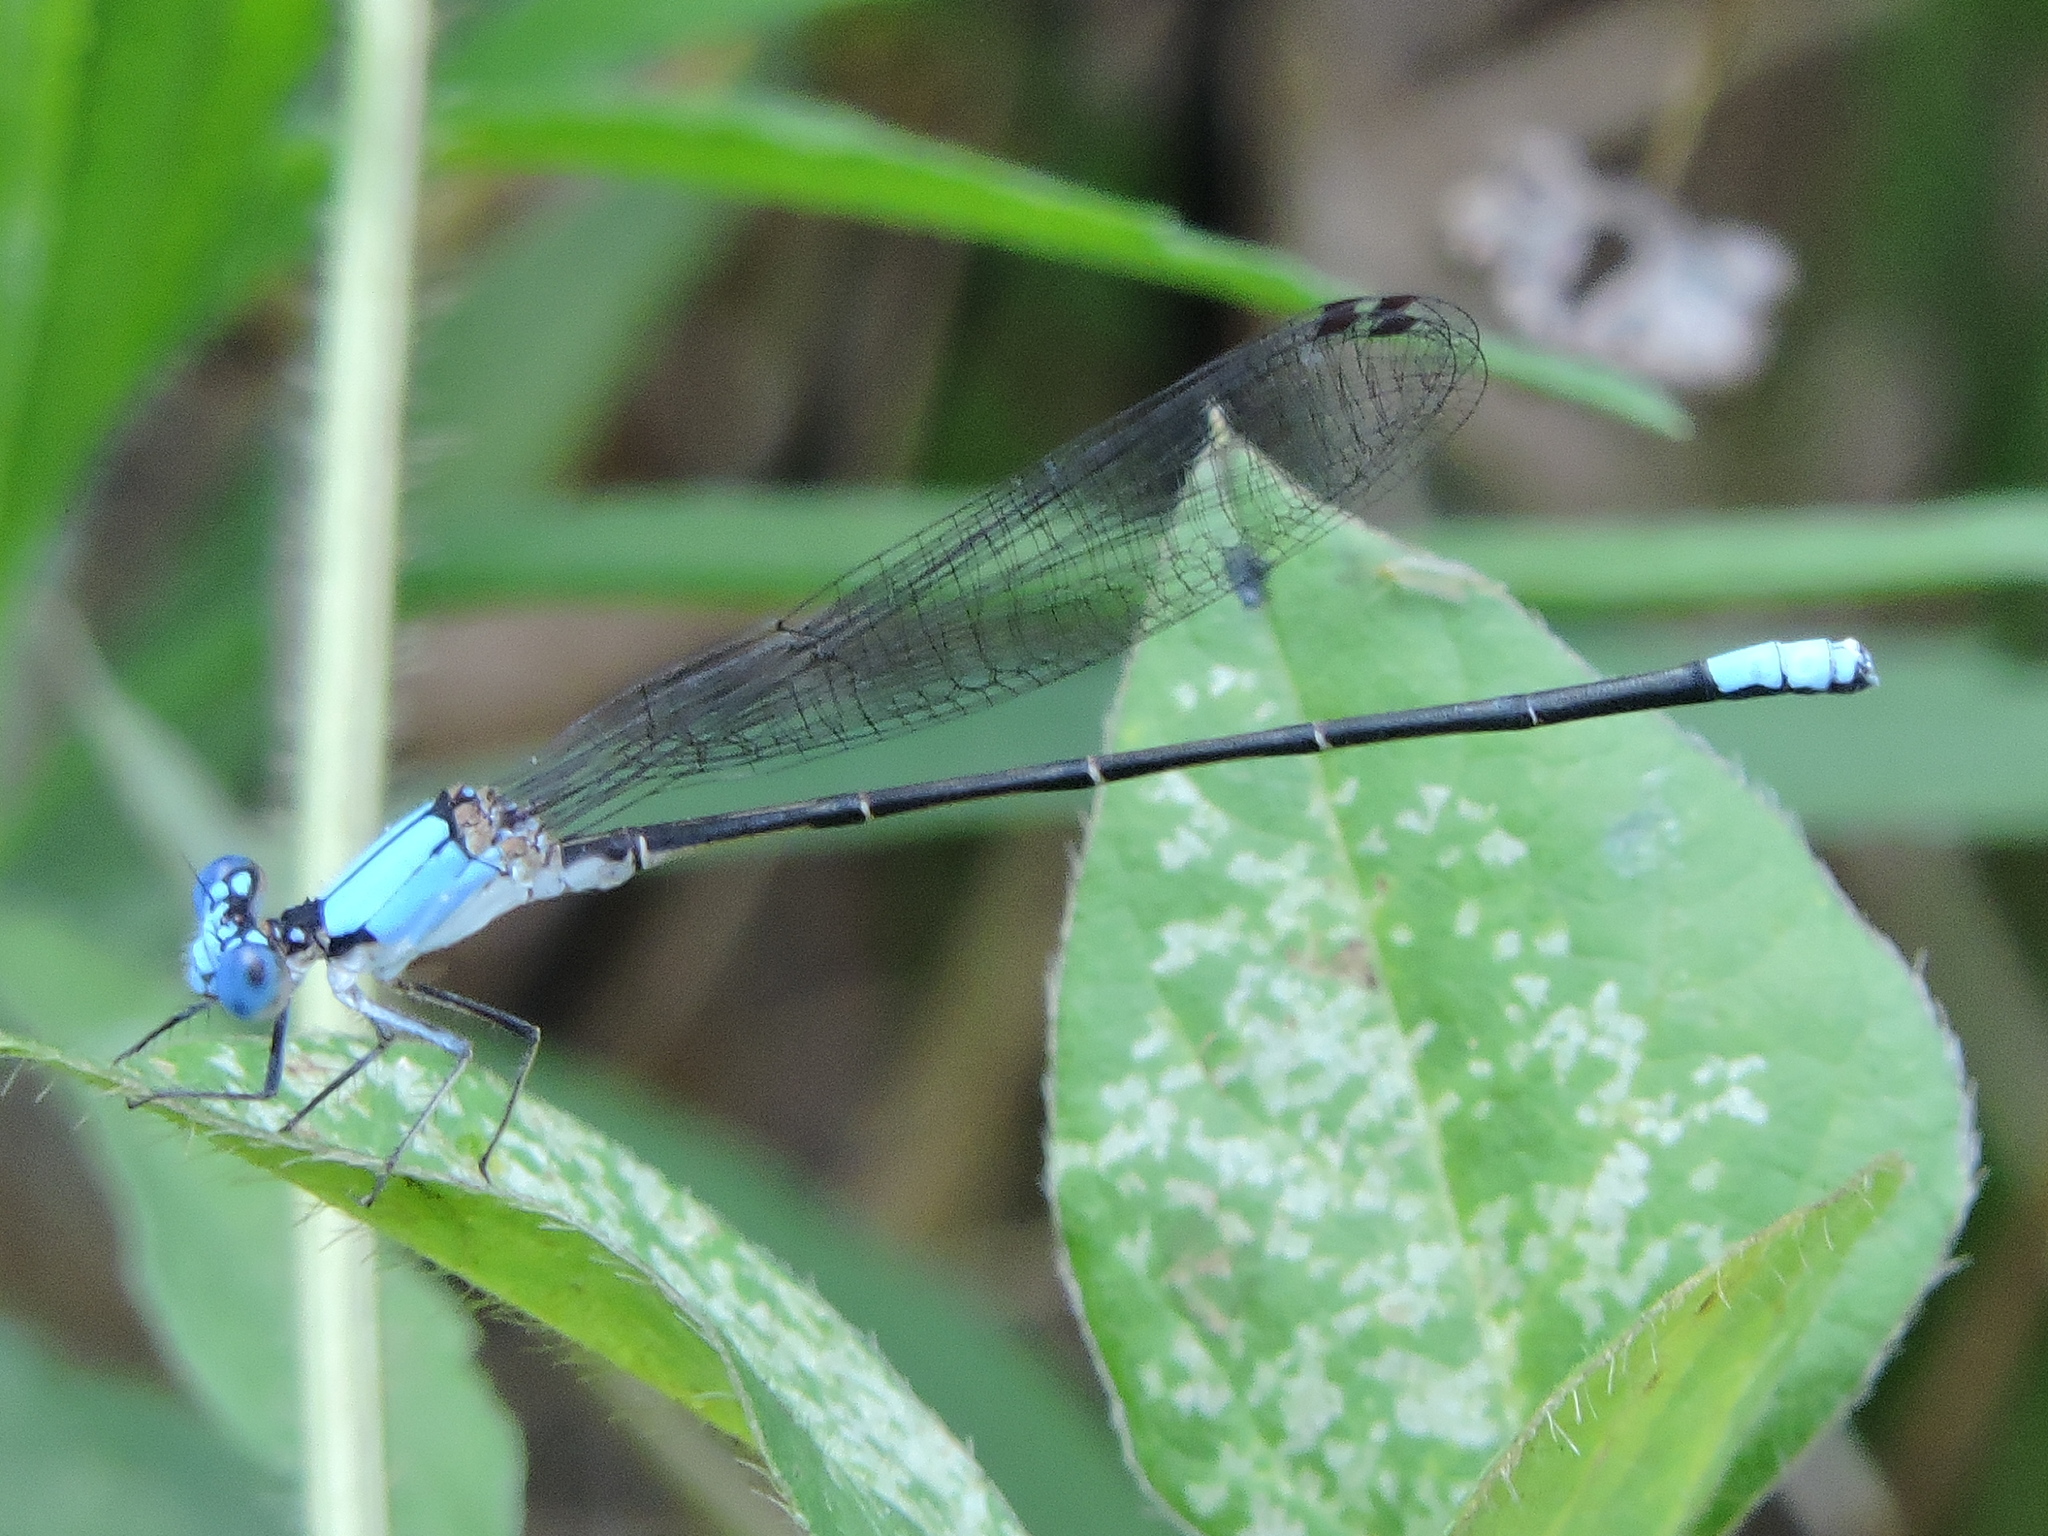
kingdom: Animalia
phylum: Arthropoda
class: Insecta
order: Odonata
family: Coenagrionidae
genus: Argia
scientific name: Argia apicalis
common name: Blue-fronted dancer
